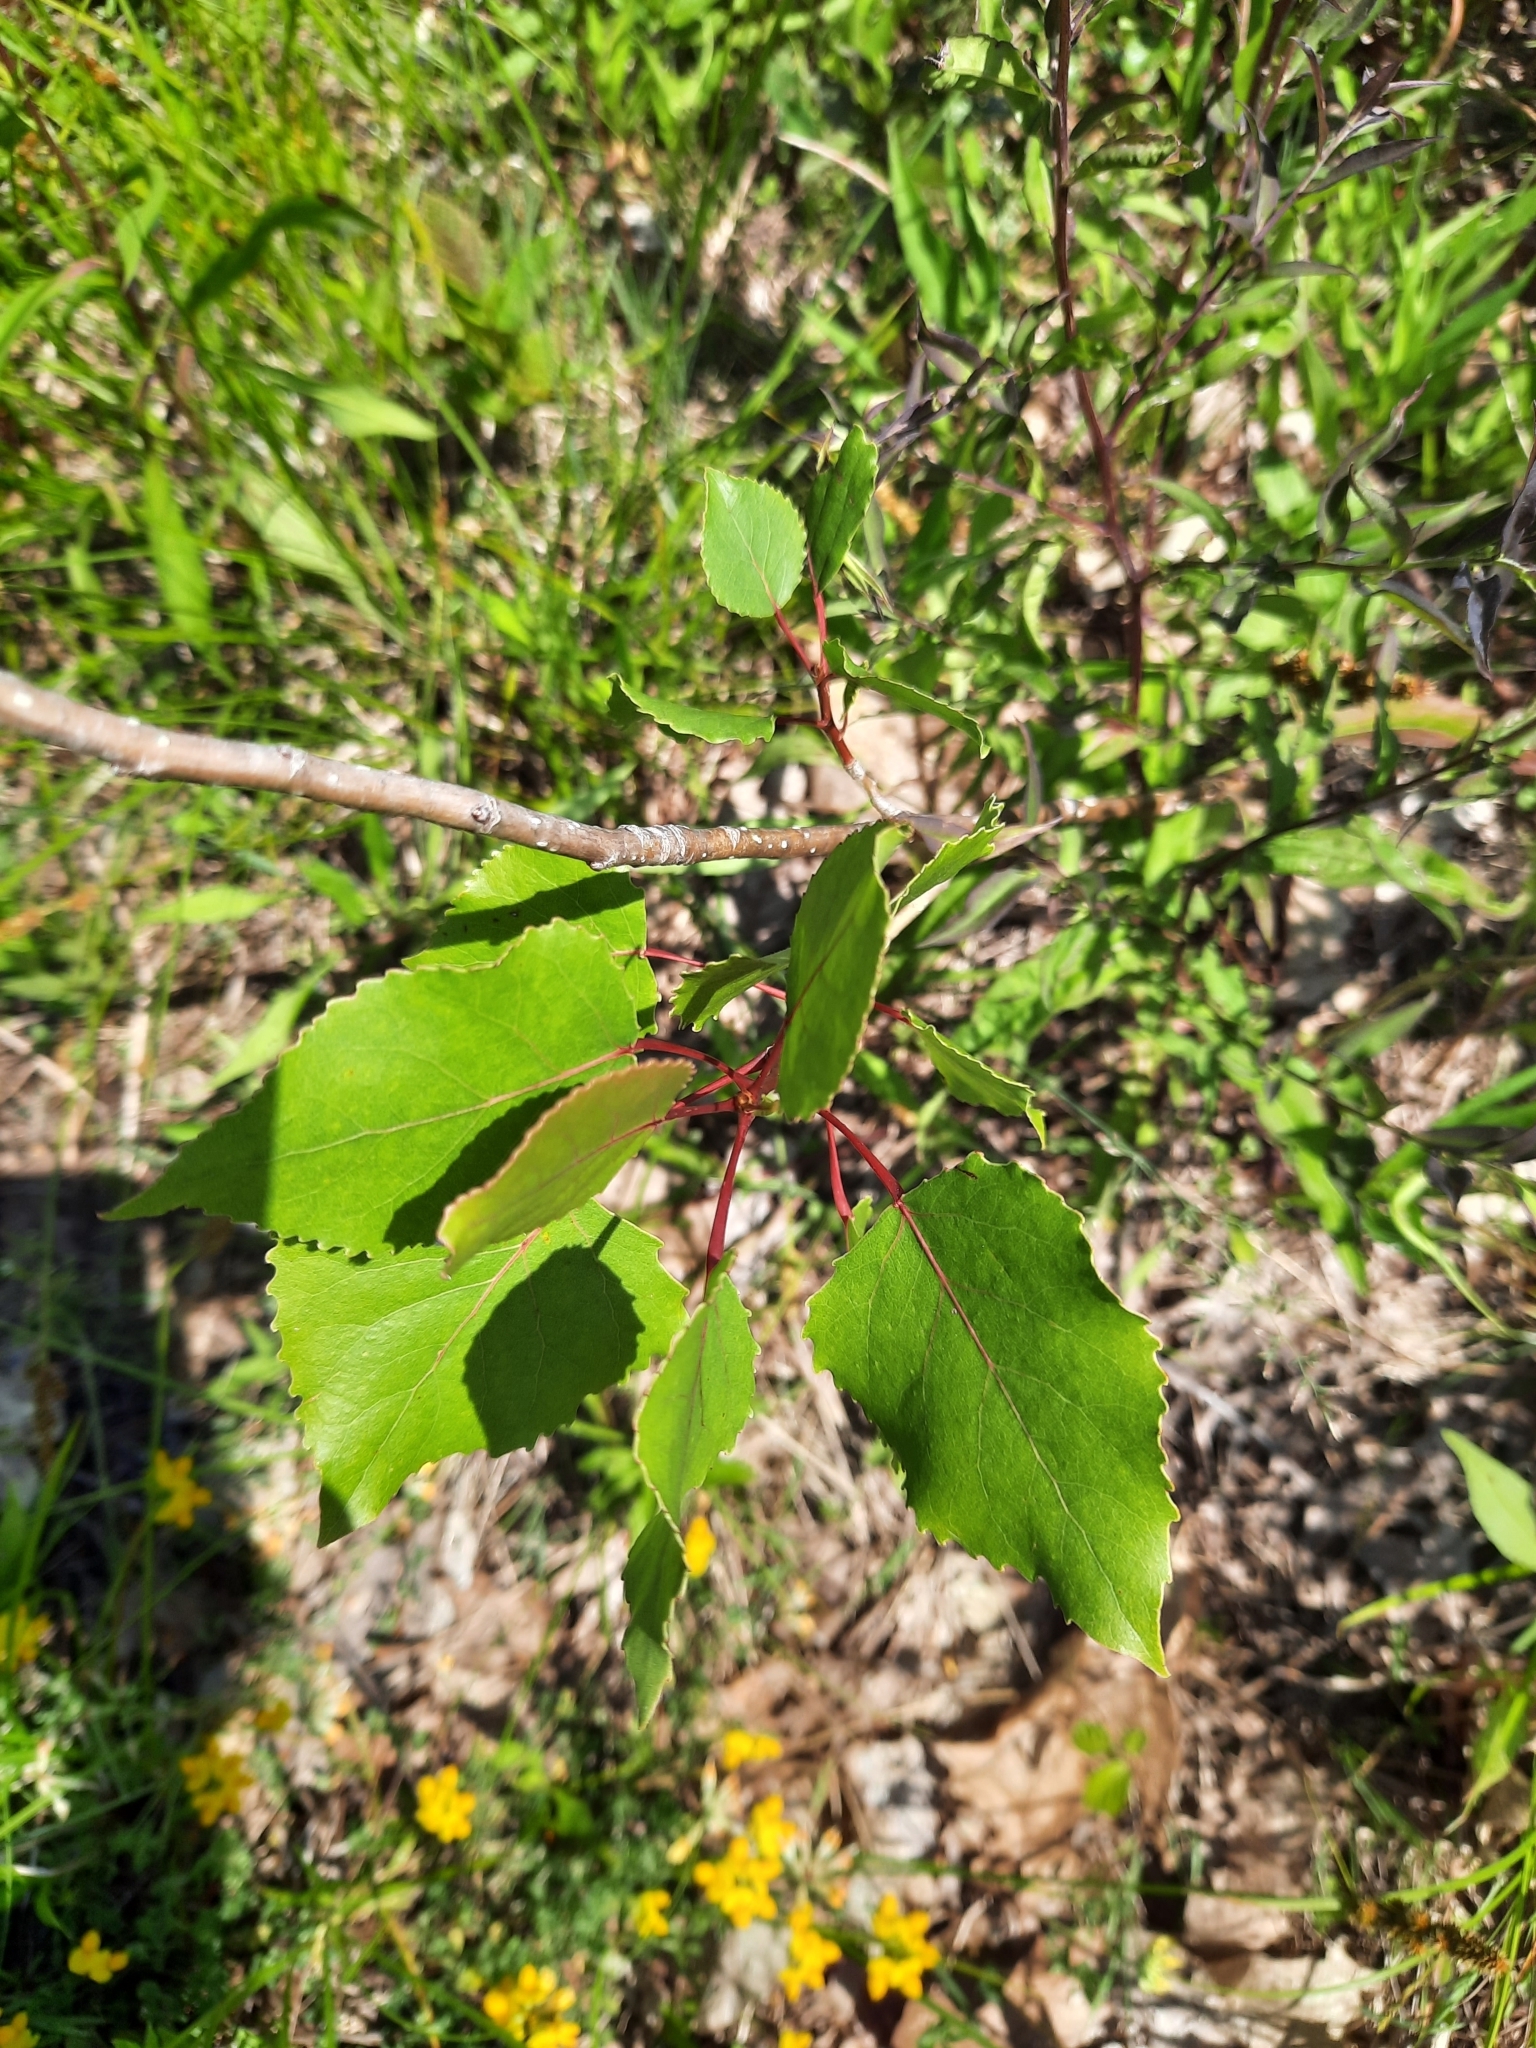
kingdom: Plantae
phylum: Tracheophyta
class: Magnoliopsida
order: Malpighiales
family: Salicaceae
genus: Populus
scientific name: Populus deltoides
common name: Eastern cottonwood
